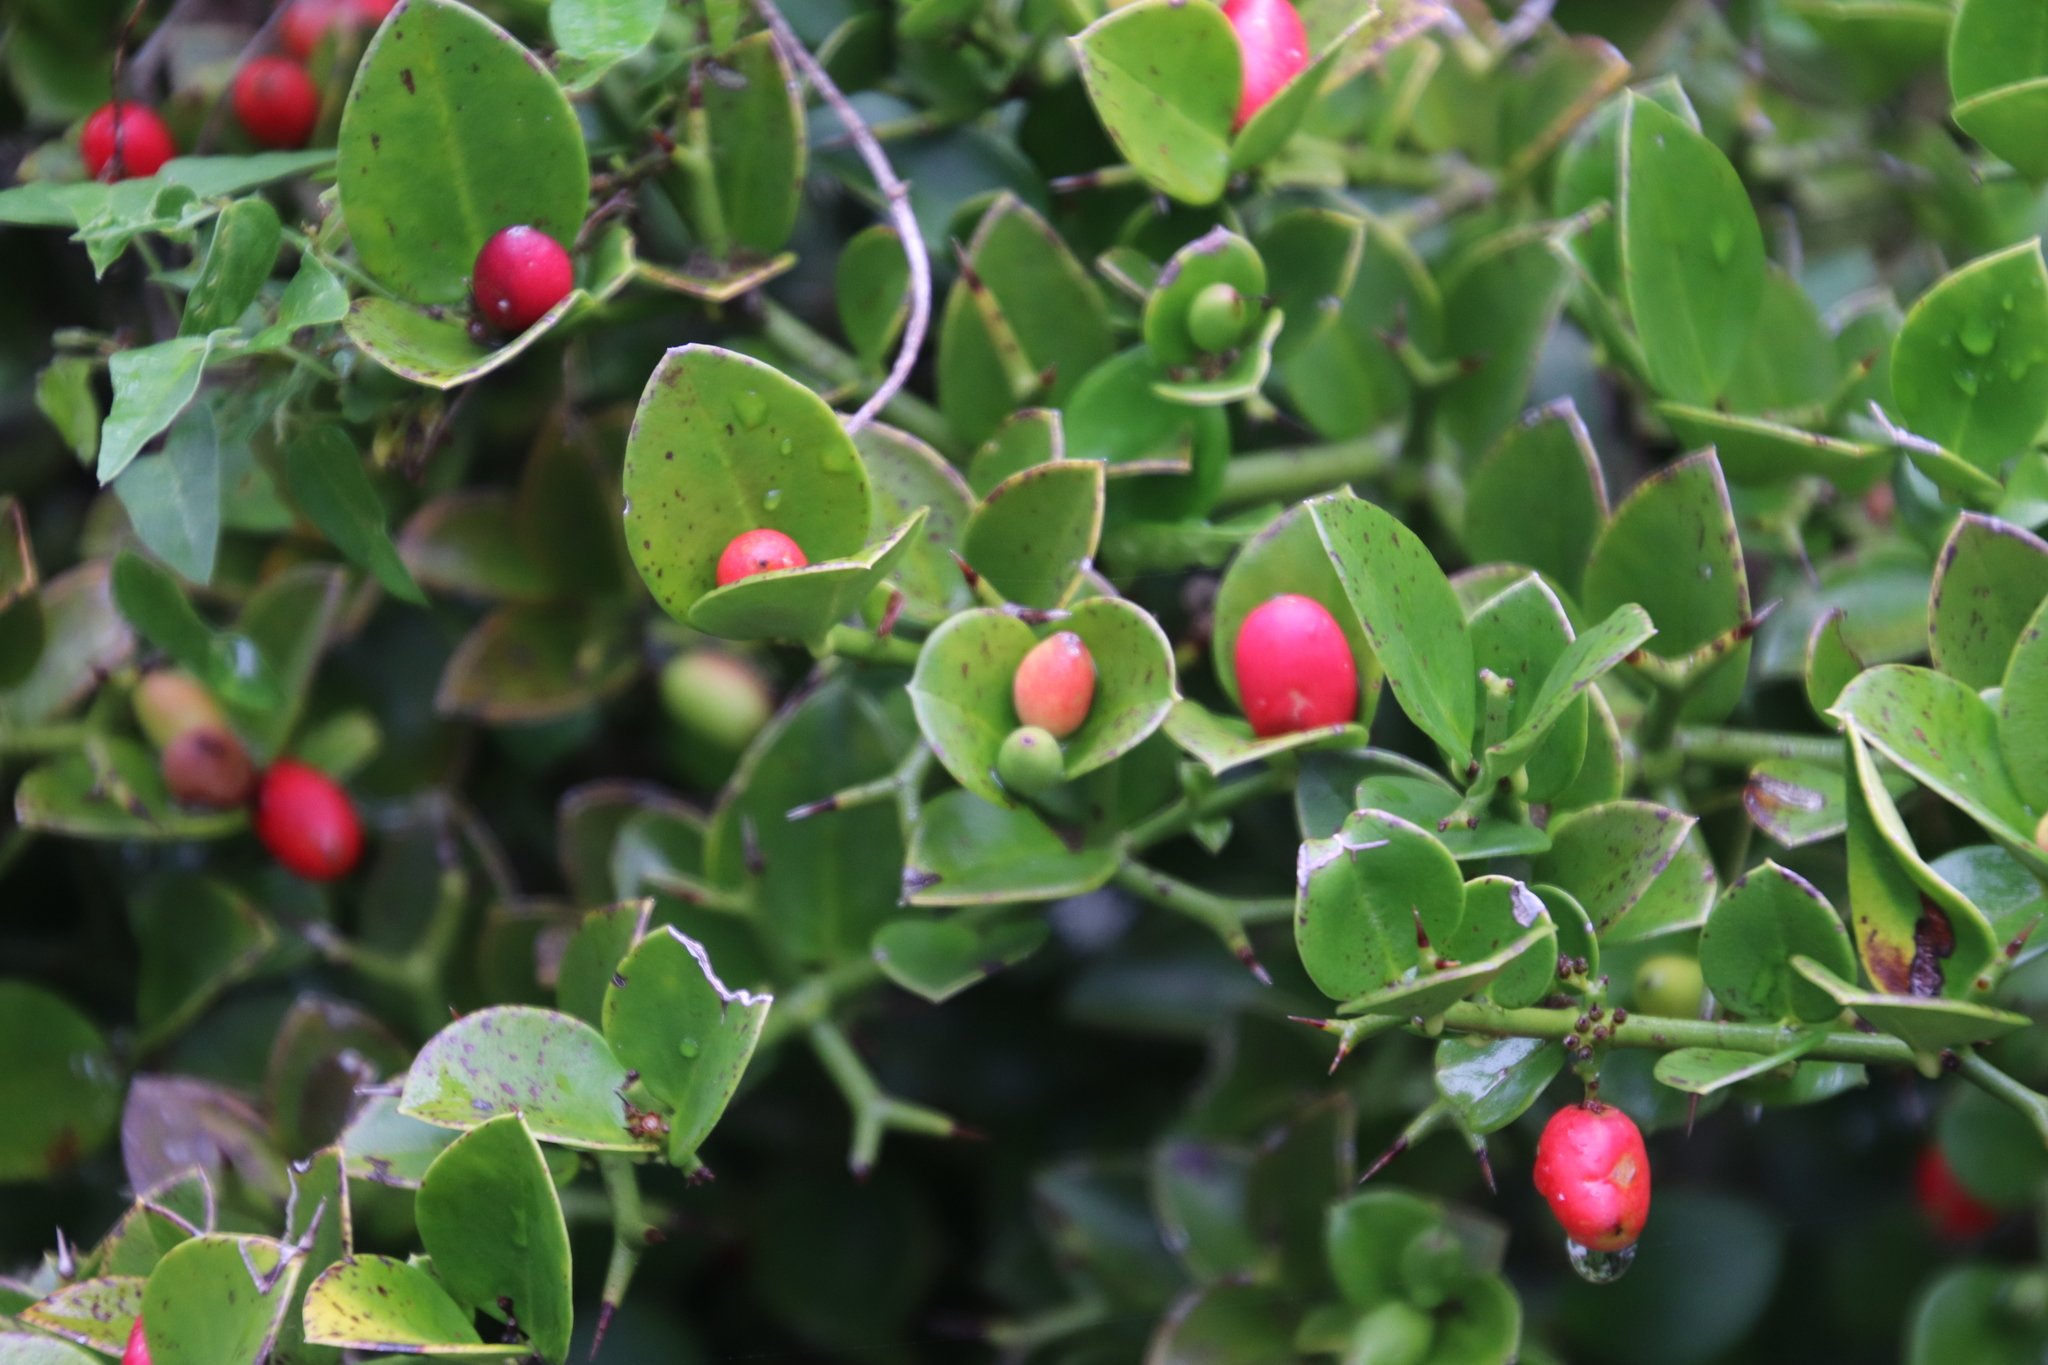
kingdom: Plantae
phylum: Tracheophyta
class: Magnoliopsida
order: Gentianales
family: Apocynaceae
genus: Carissa
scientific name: Carissa bispinosa
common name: Forest num-num
